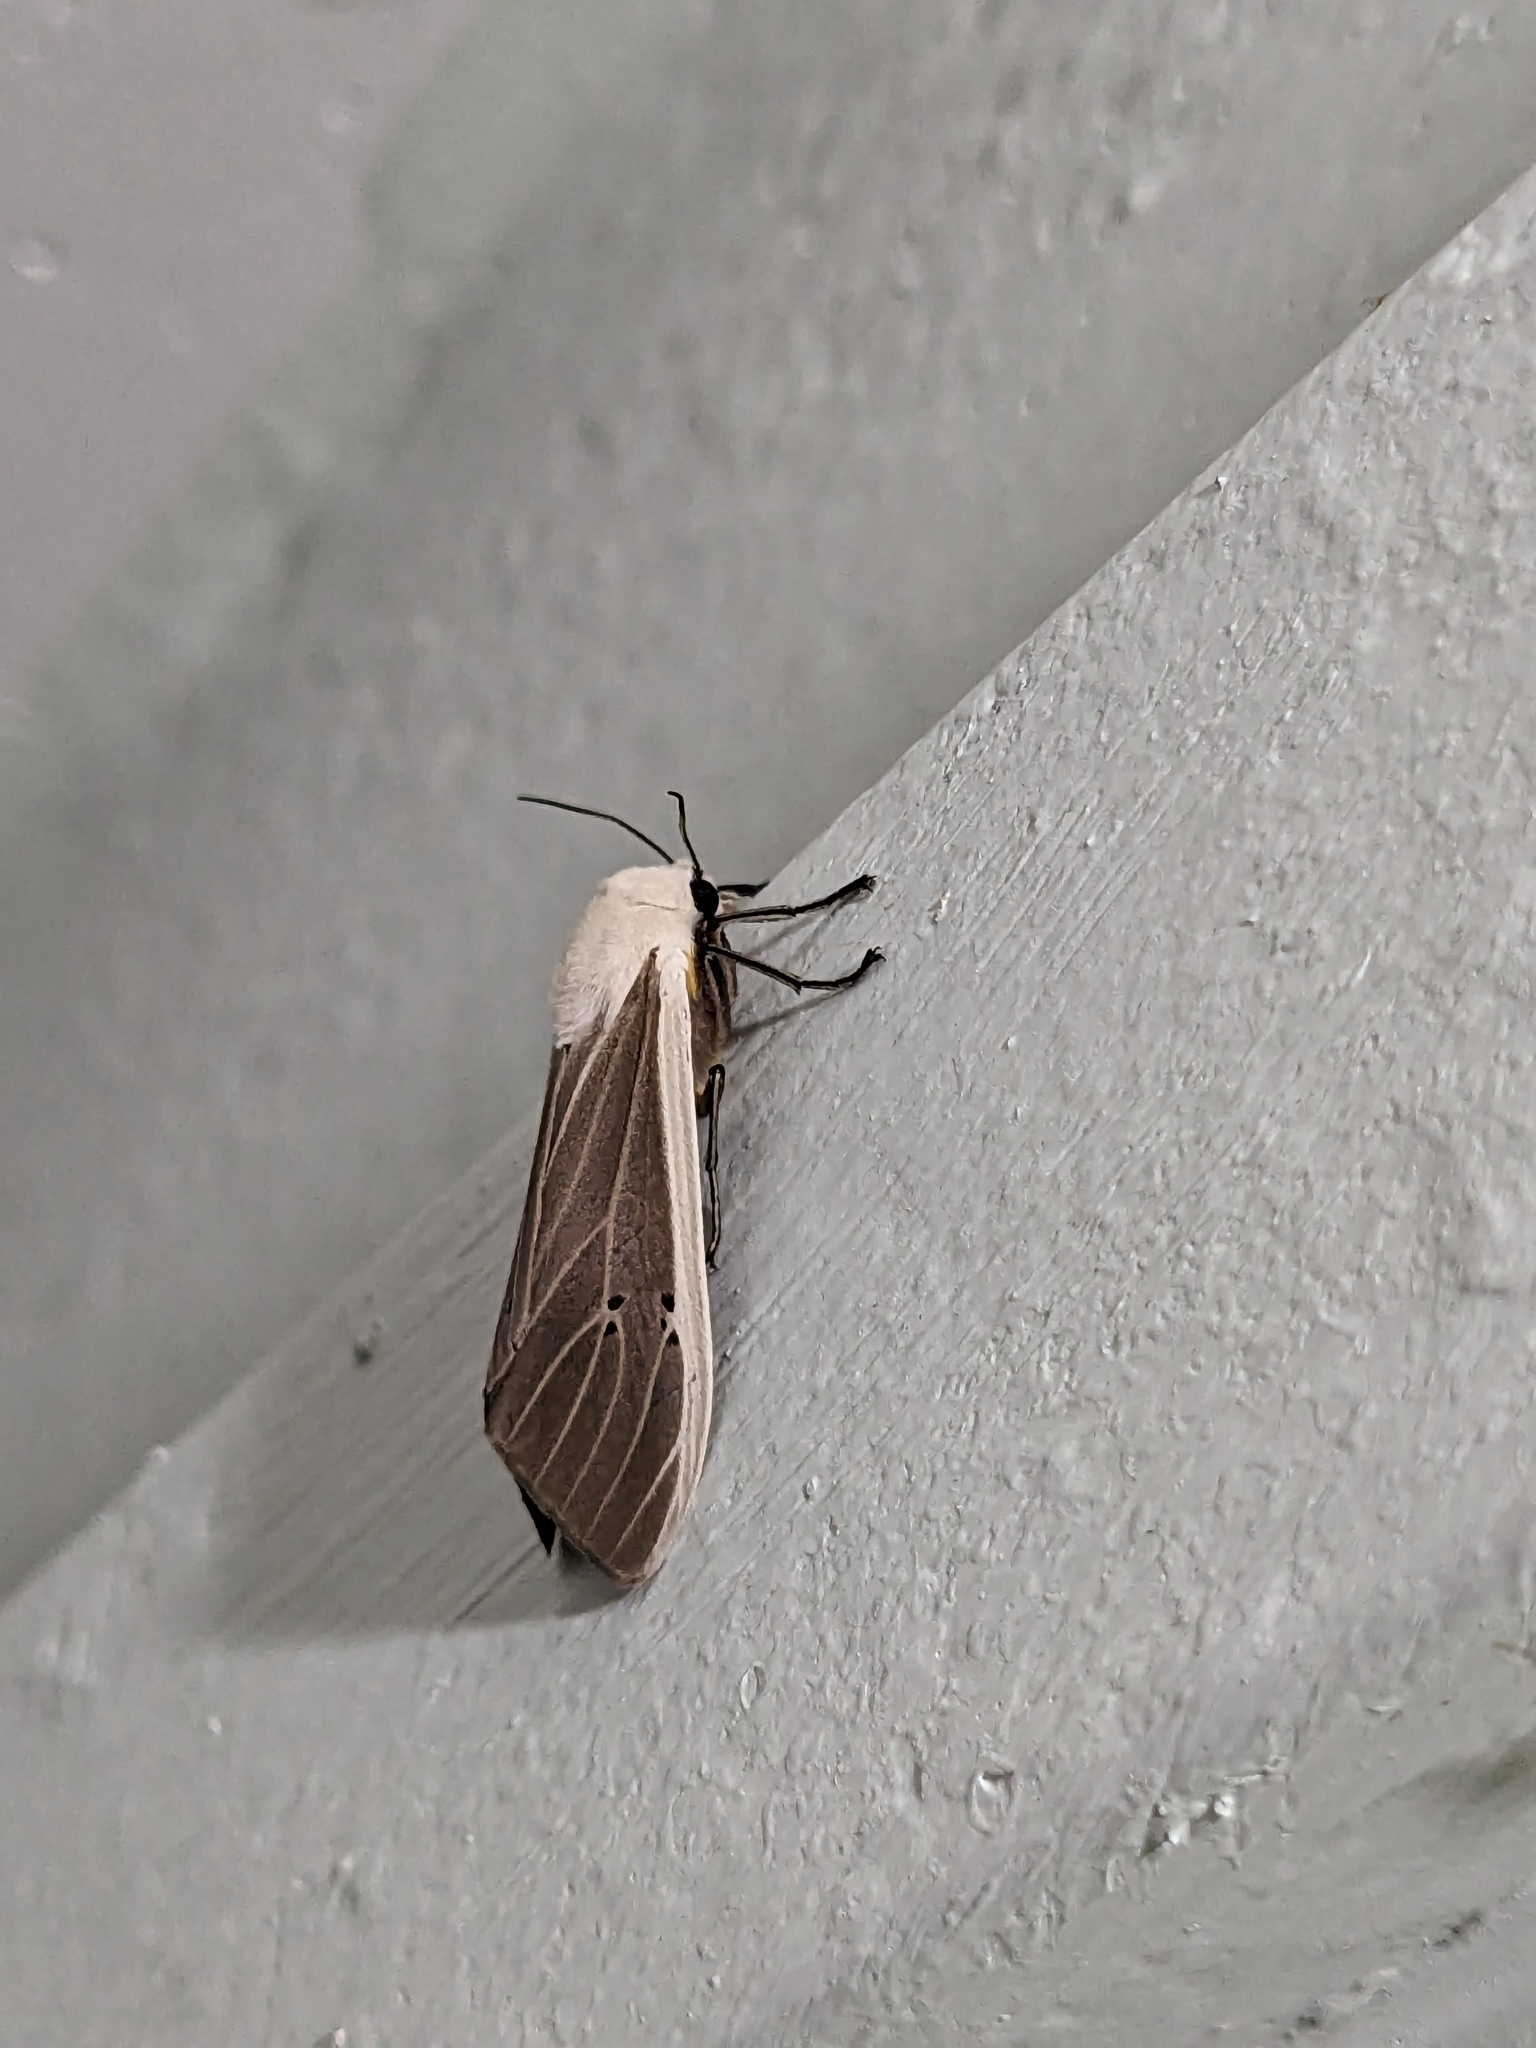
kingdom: Animalia
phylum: Arthropoda
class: Insecta
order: Lepidoptera
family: Erebidae
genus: Creatonotos
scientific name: Creatonotos transiens
